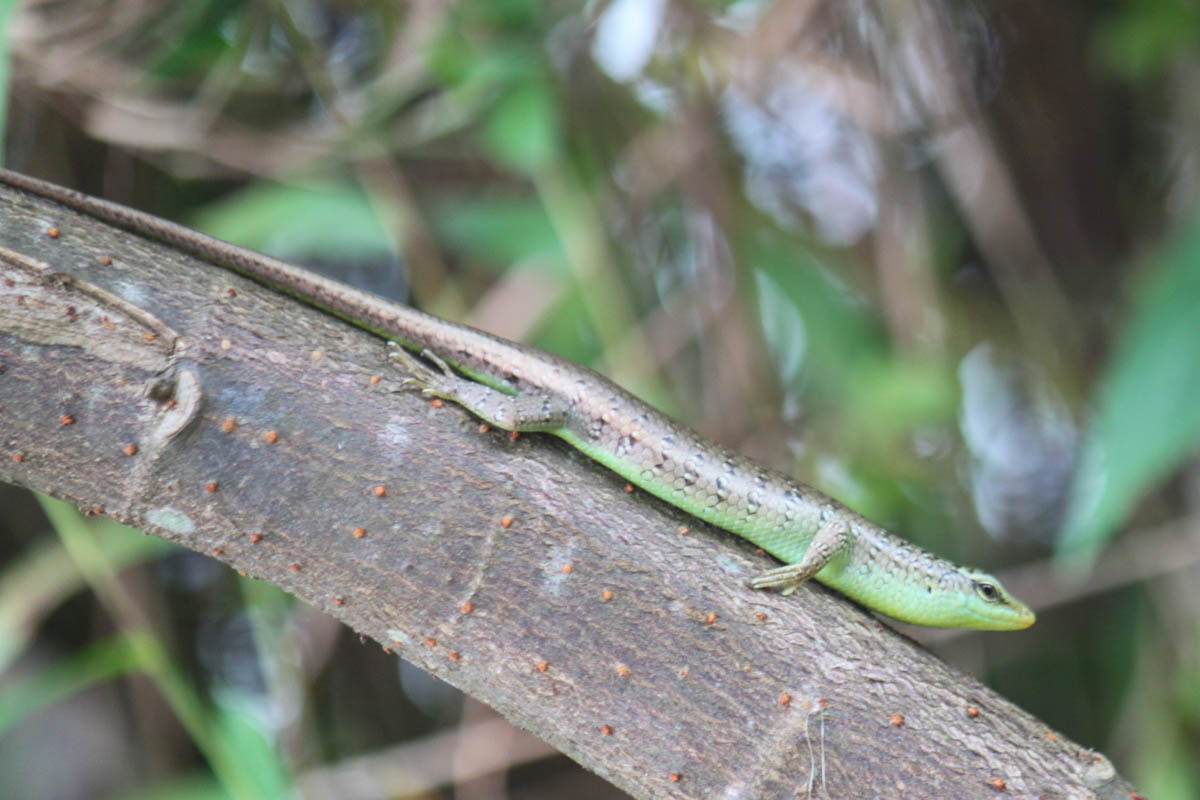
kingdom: Animalia
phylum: Chordata
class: Squamata
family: Scincidae
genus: Dasia
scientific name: Dasia olivacea
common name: Olive dasia
